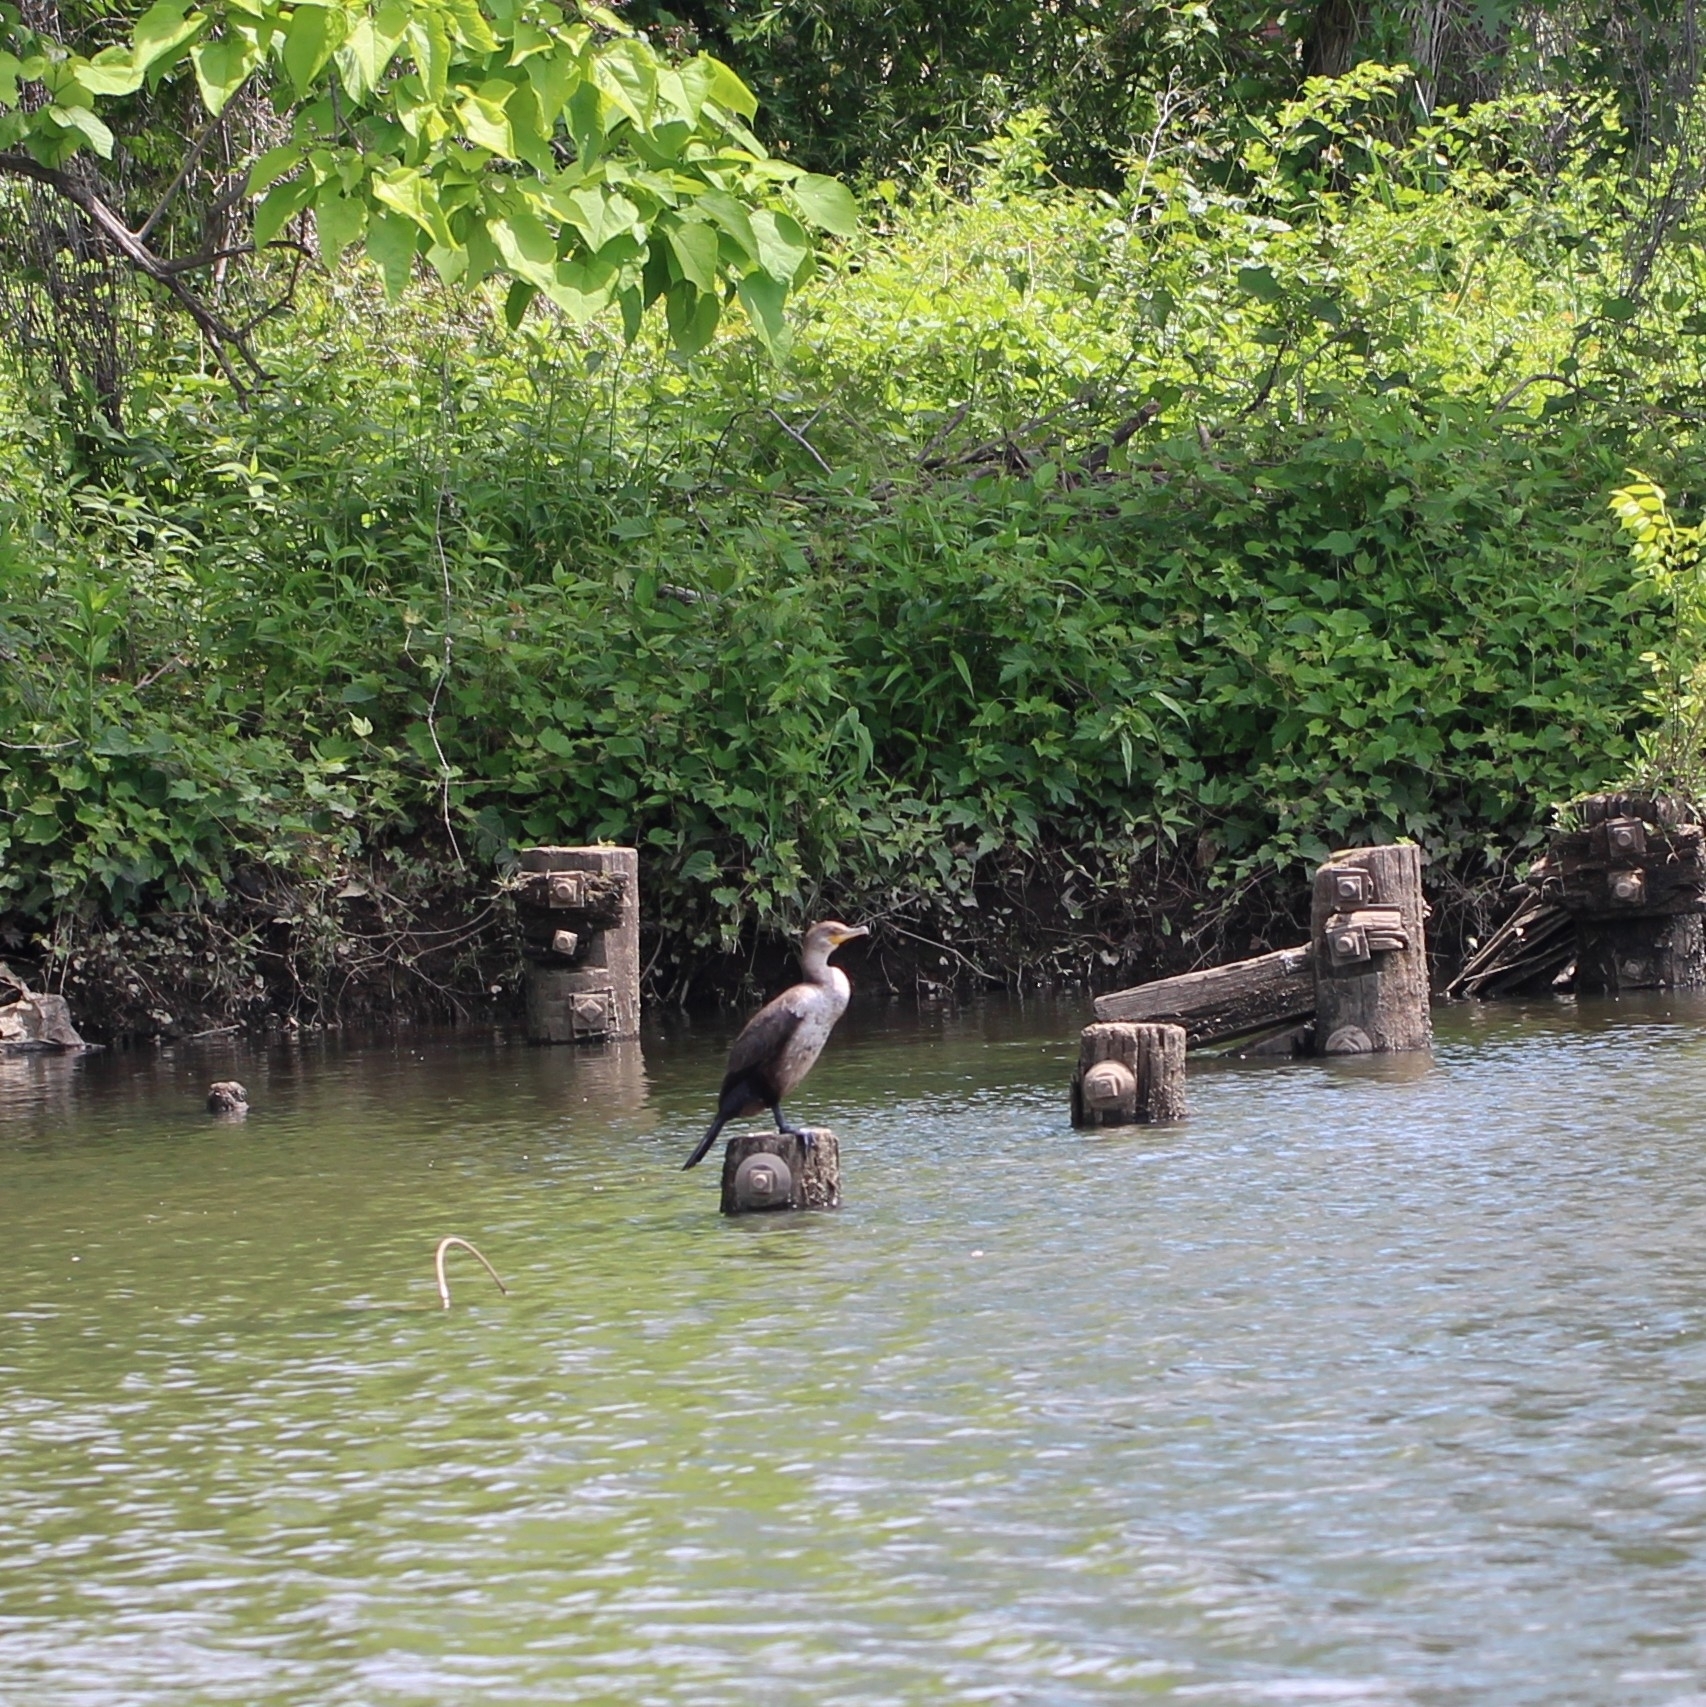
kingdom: Animalia
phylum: Chordata
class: Aves
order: Suliformes
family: Phalacrocoracidae
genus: Phalacrocorax
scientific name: Phalacrocorax auritus
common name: Double-crested cormorant
